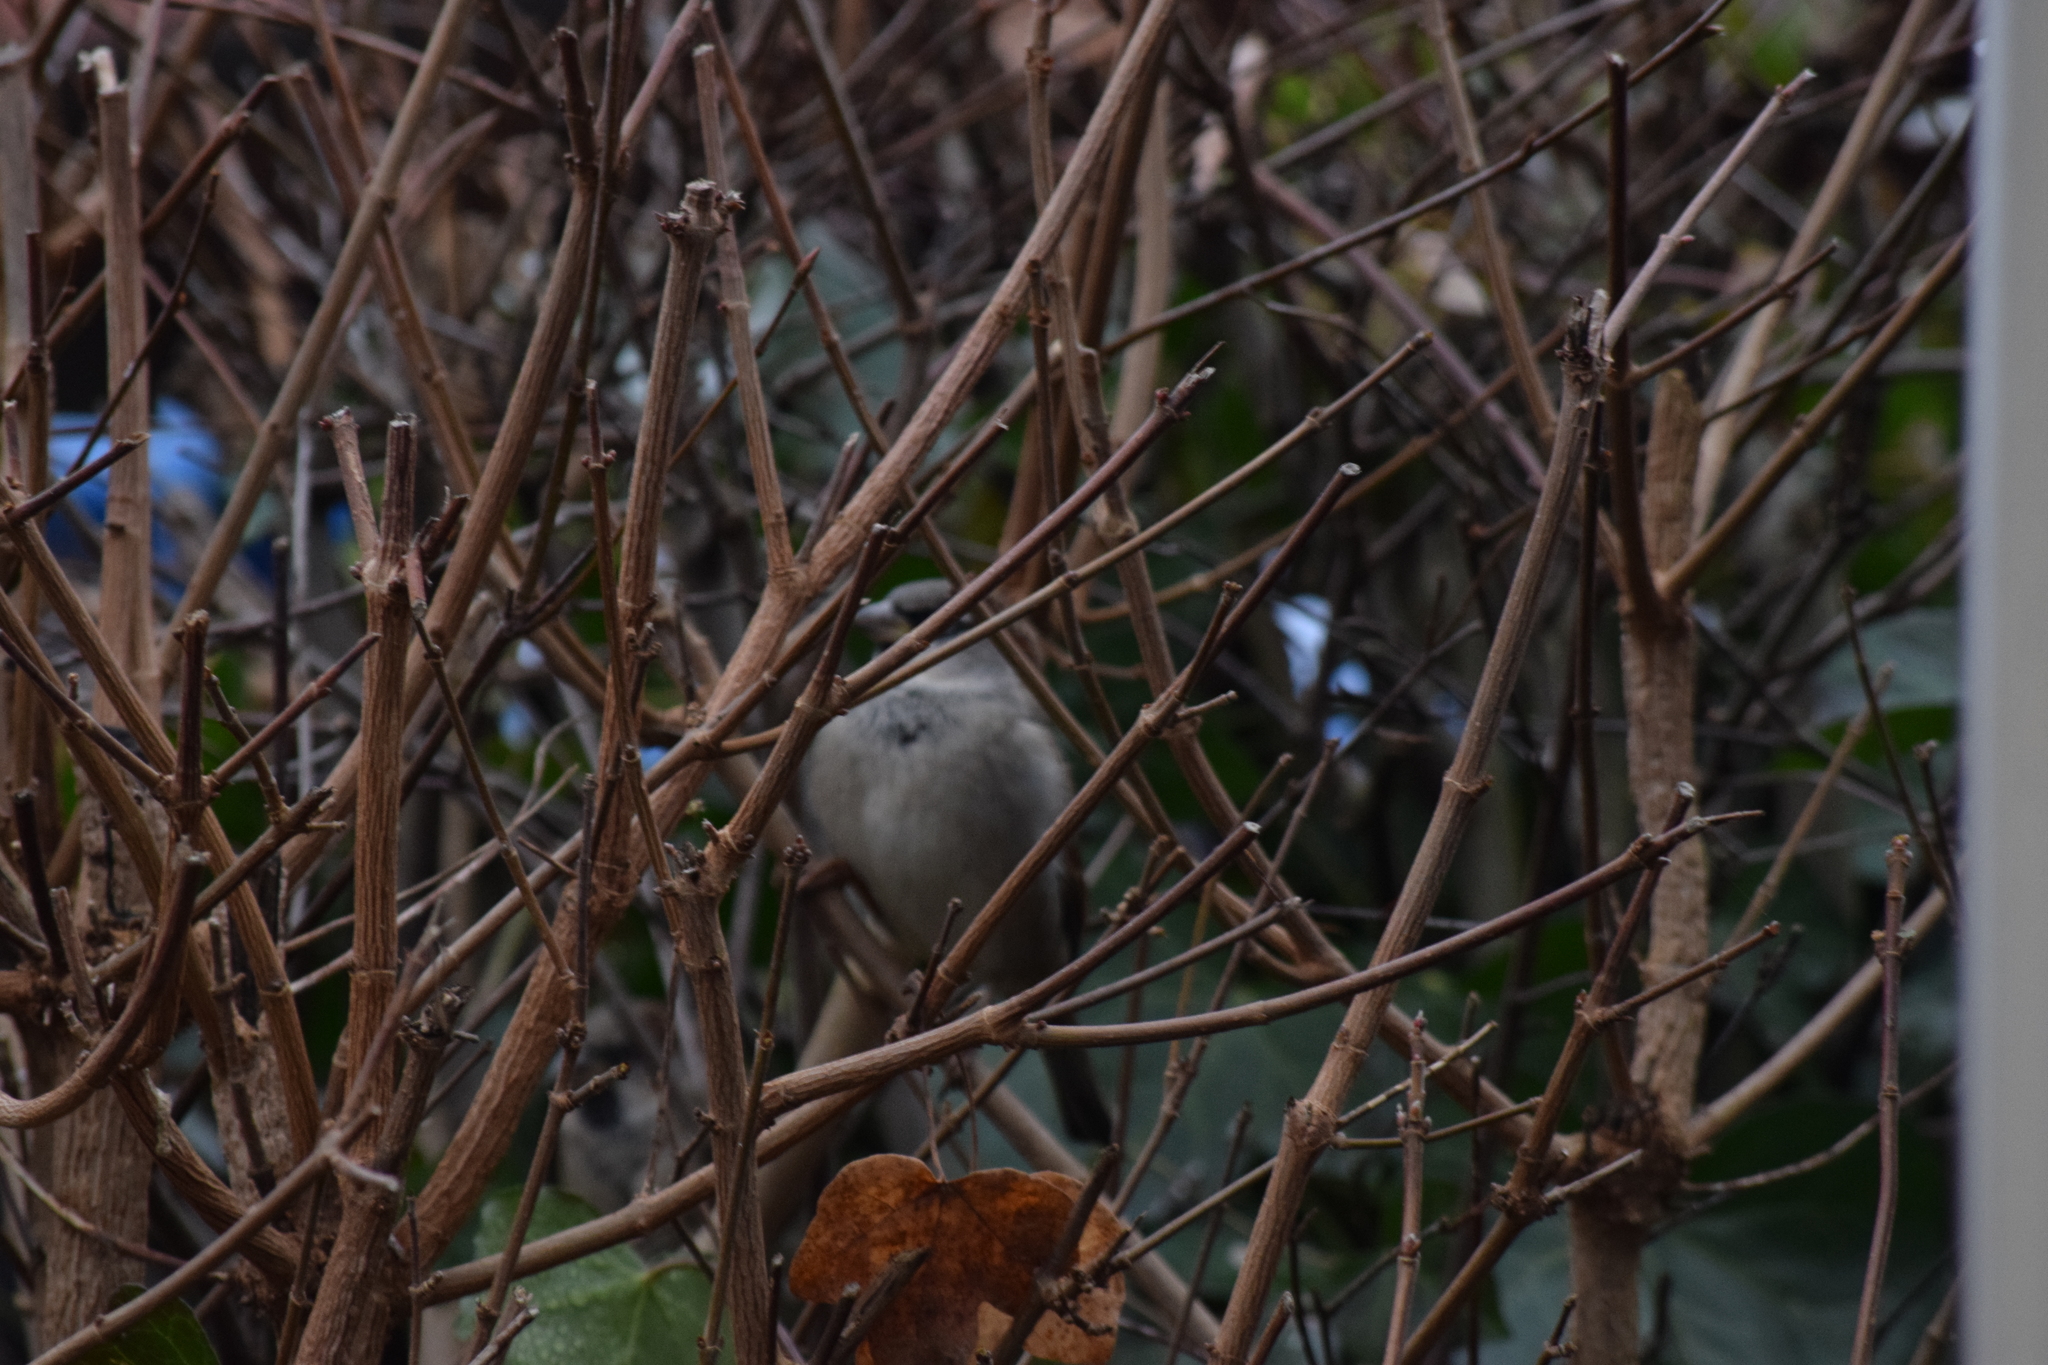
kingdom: Animalia
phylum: Chordata
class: Aves
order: Passeriformes
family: Passeridae
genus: Passer
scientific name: Passer domesticus
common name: House sparrow
